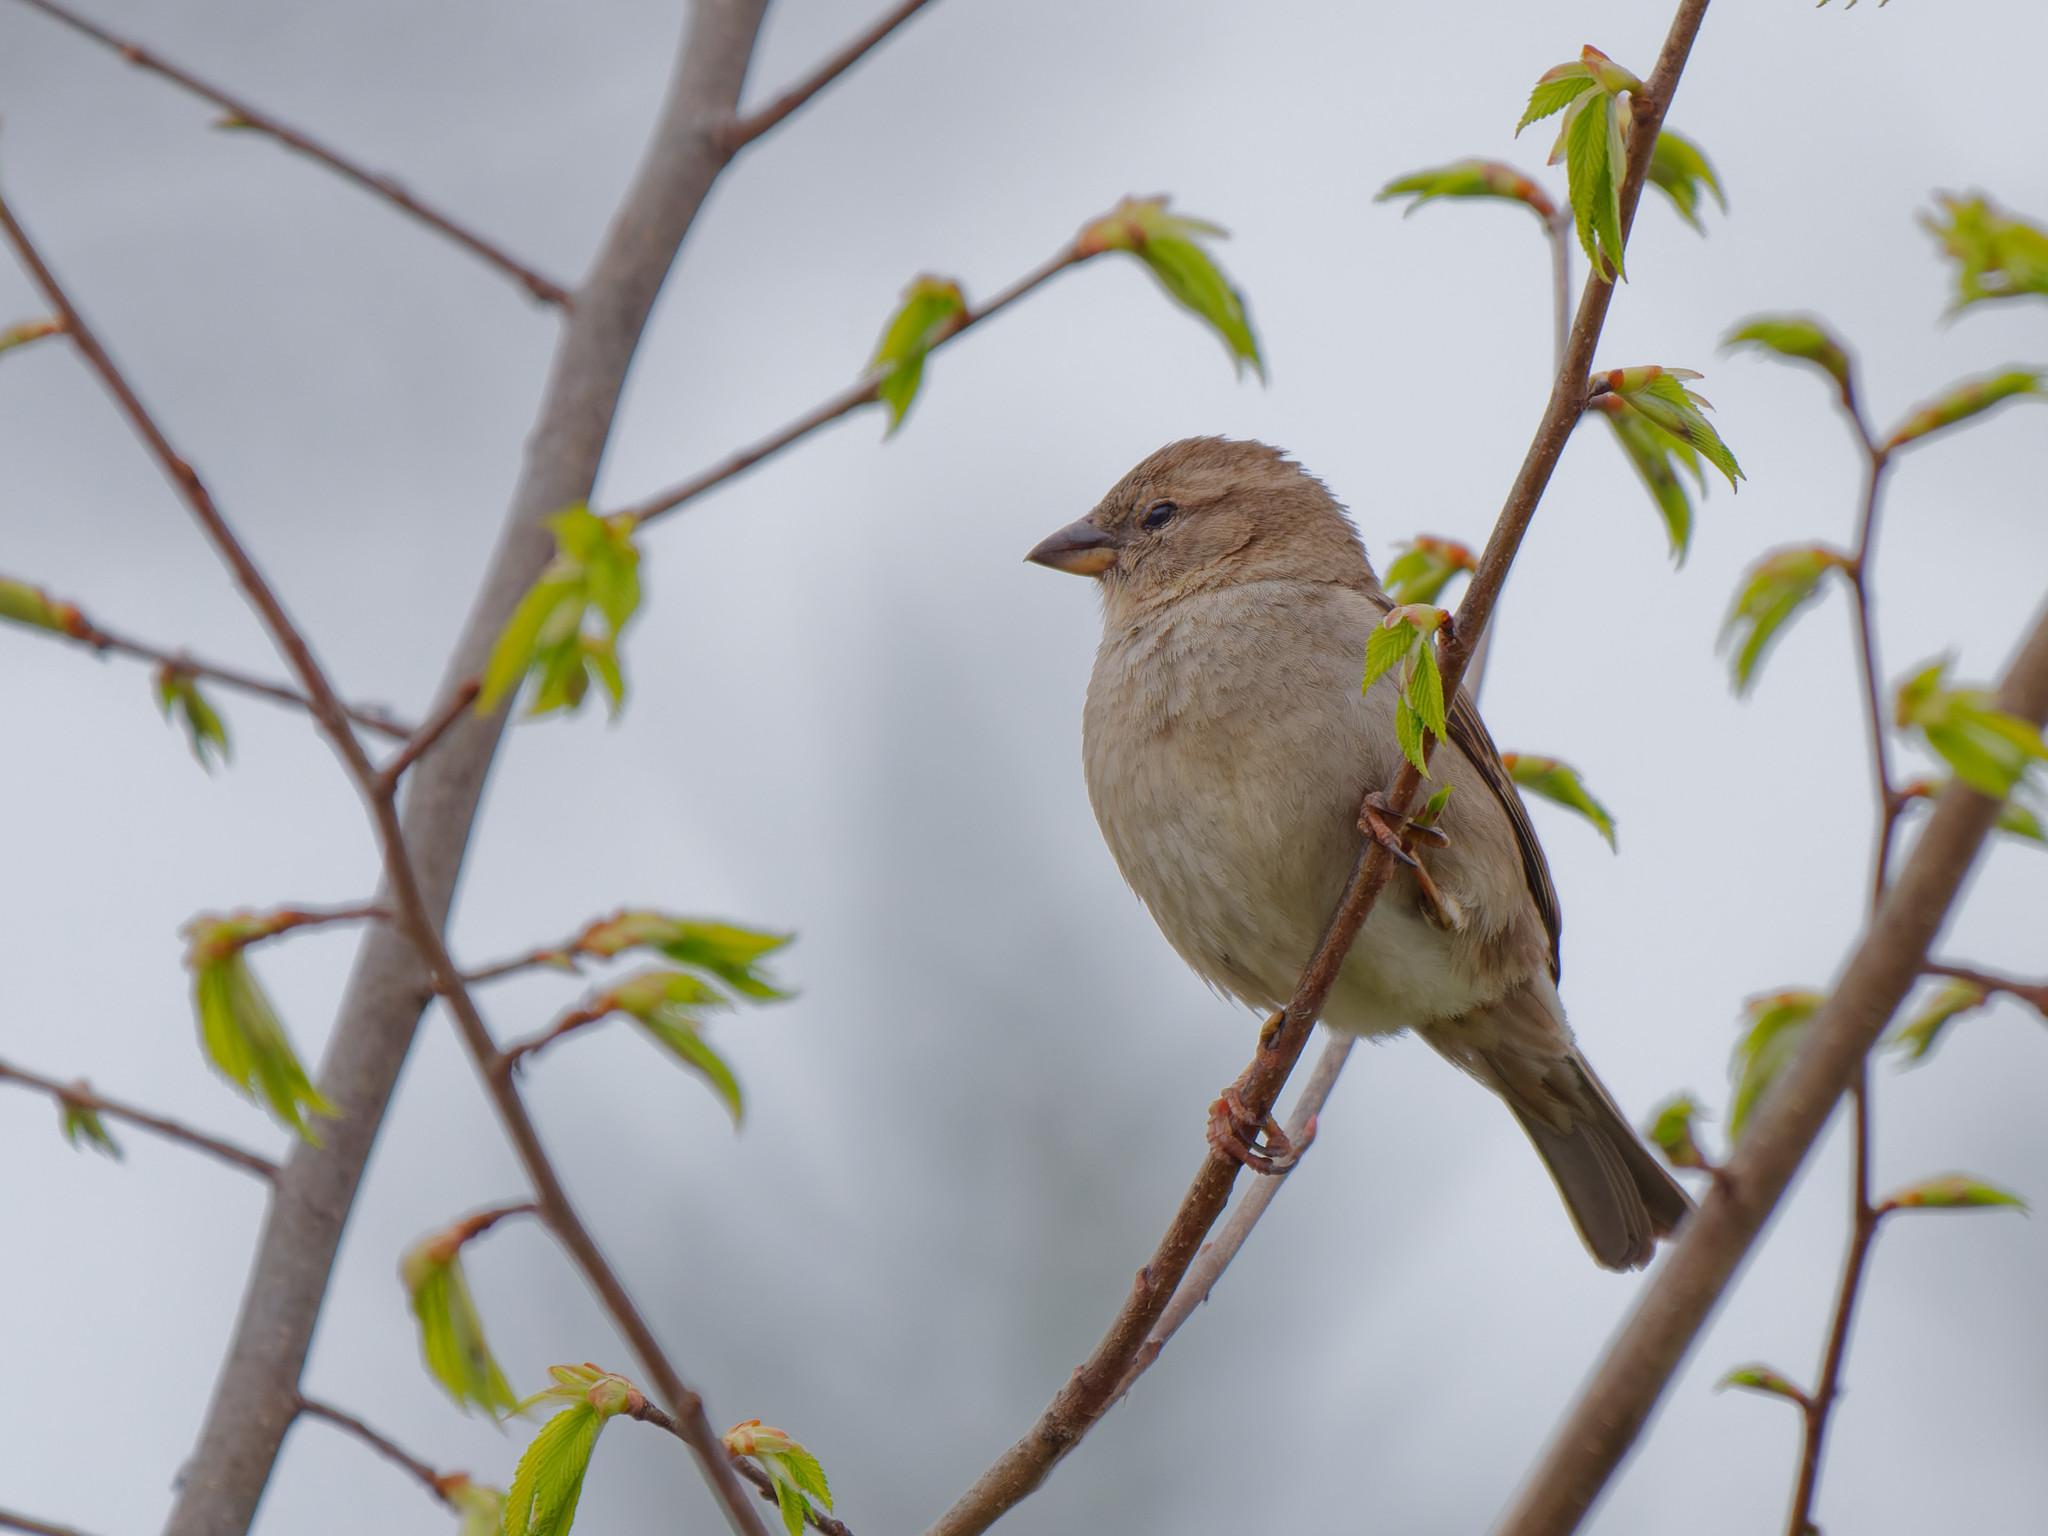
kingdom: Animalia
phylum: Chordata
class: Aves
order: Passeriformes
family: Passeridae
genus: Passer
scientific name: Passer domesticus
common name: House sparrow
